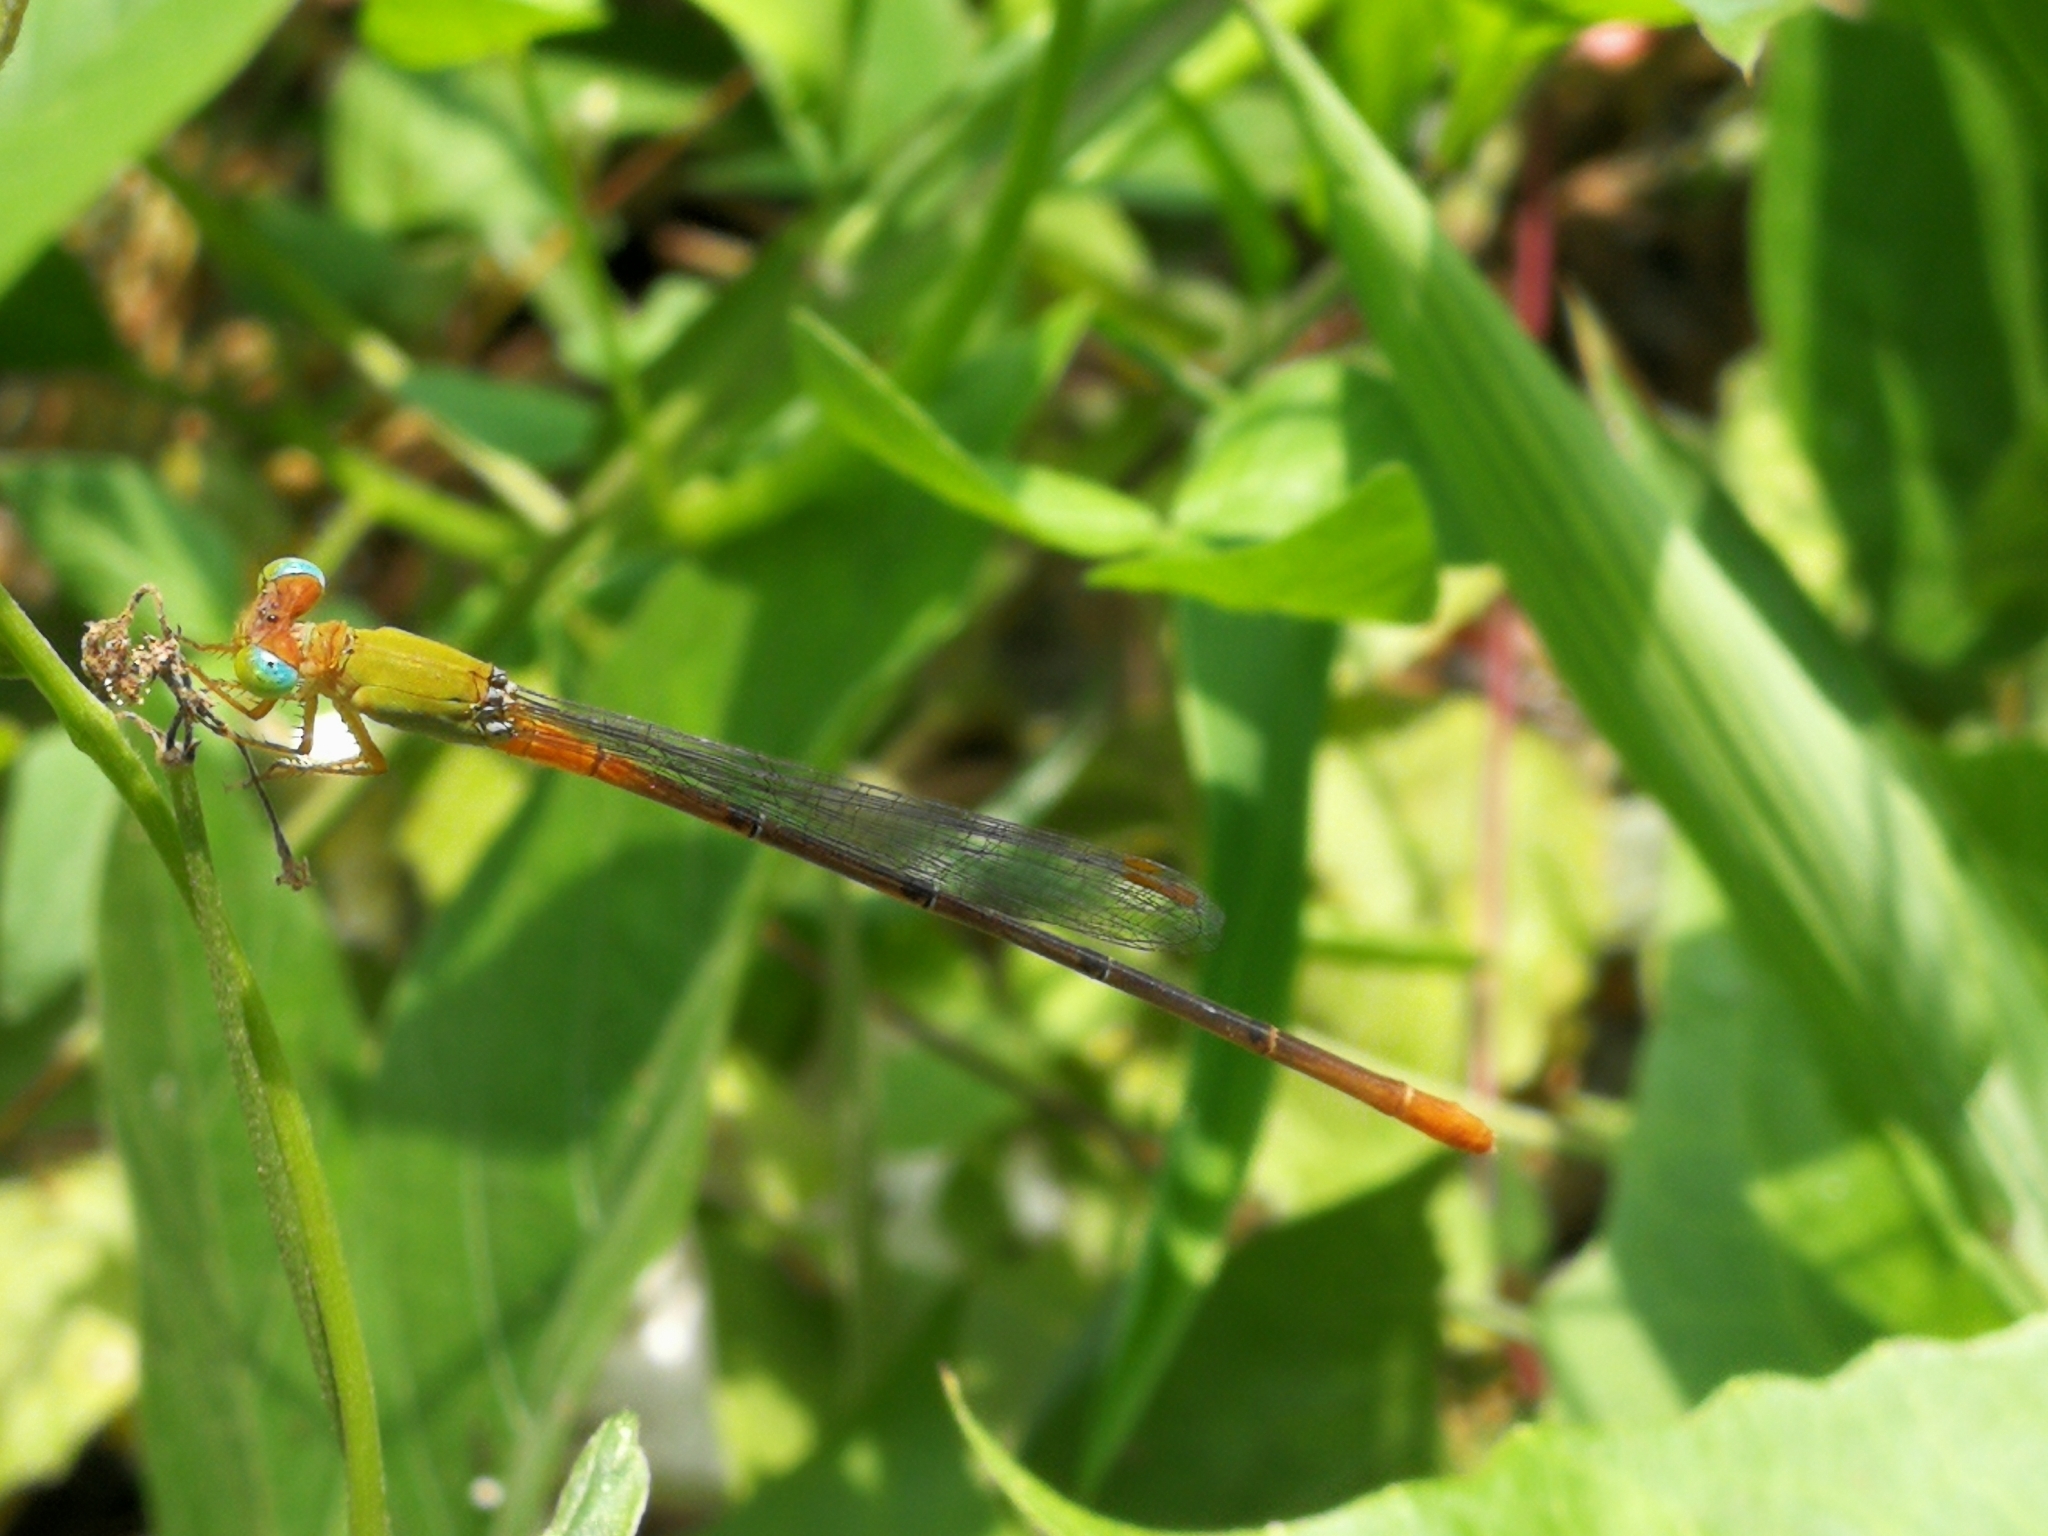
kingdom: Animalia
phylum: Arthropoda
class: Insecta
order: Odonata
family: Coenagrionidae
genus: Ceriagrion
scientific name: Ceriagrion cerinorubellum
